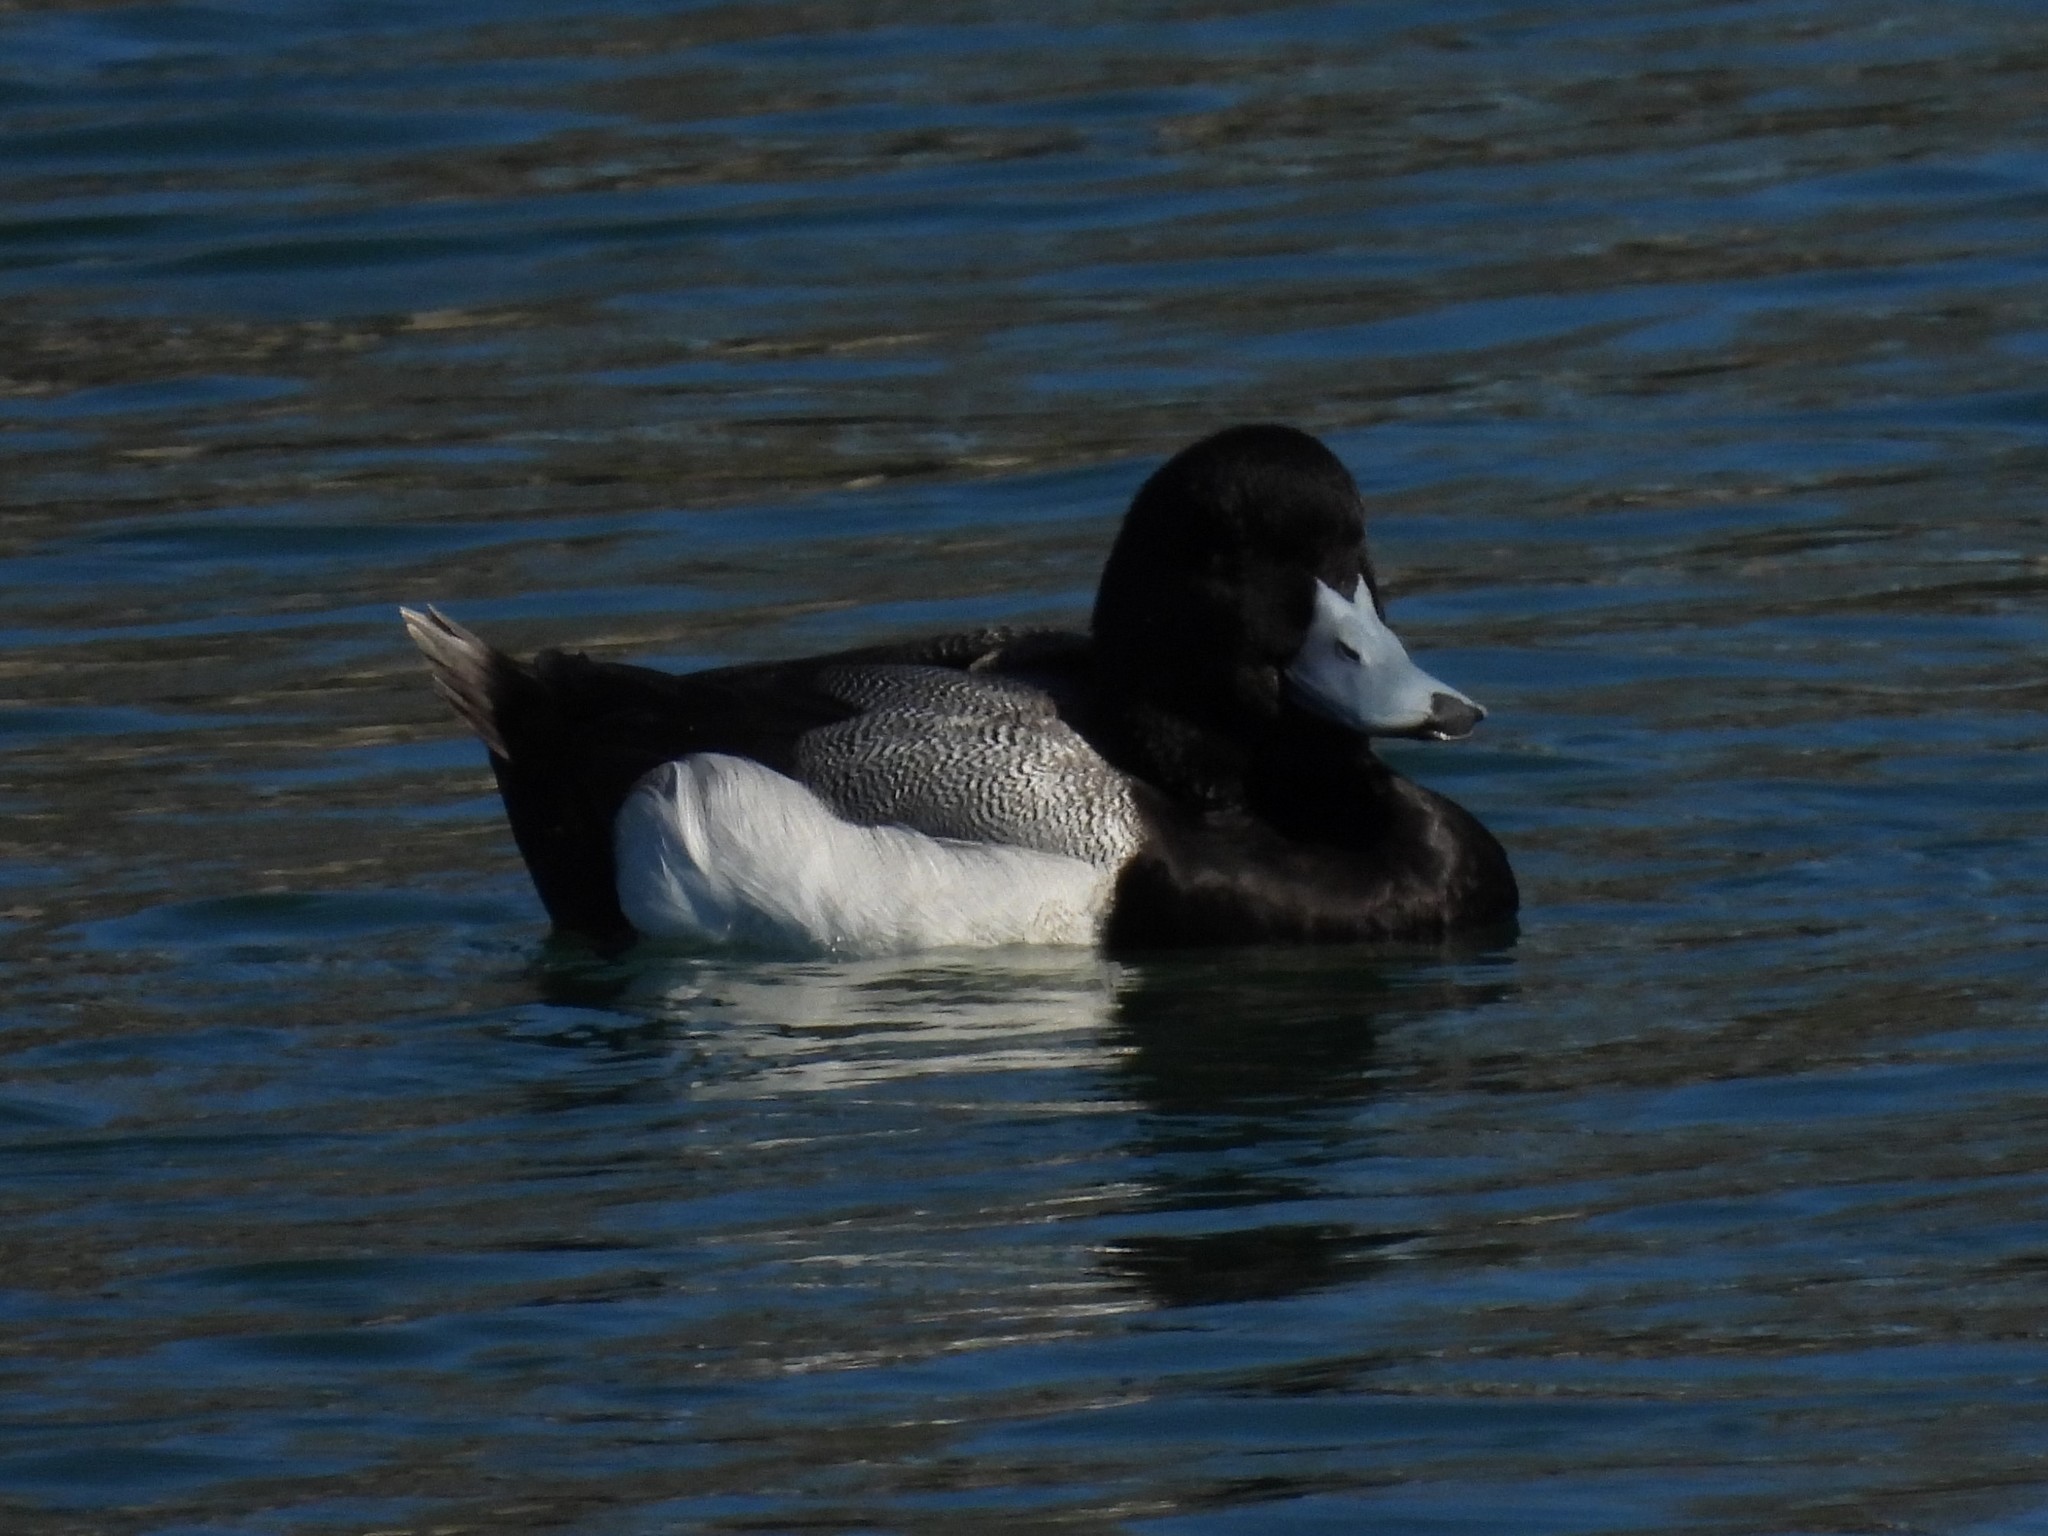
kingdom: Animalia
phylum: Chordata
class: Aves
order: Anseriformes
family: Anatidae
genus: Aythya
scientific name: Aythya affinis
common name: Lesser scaup
